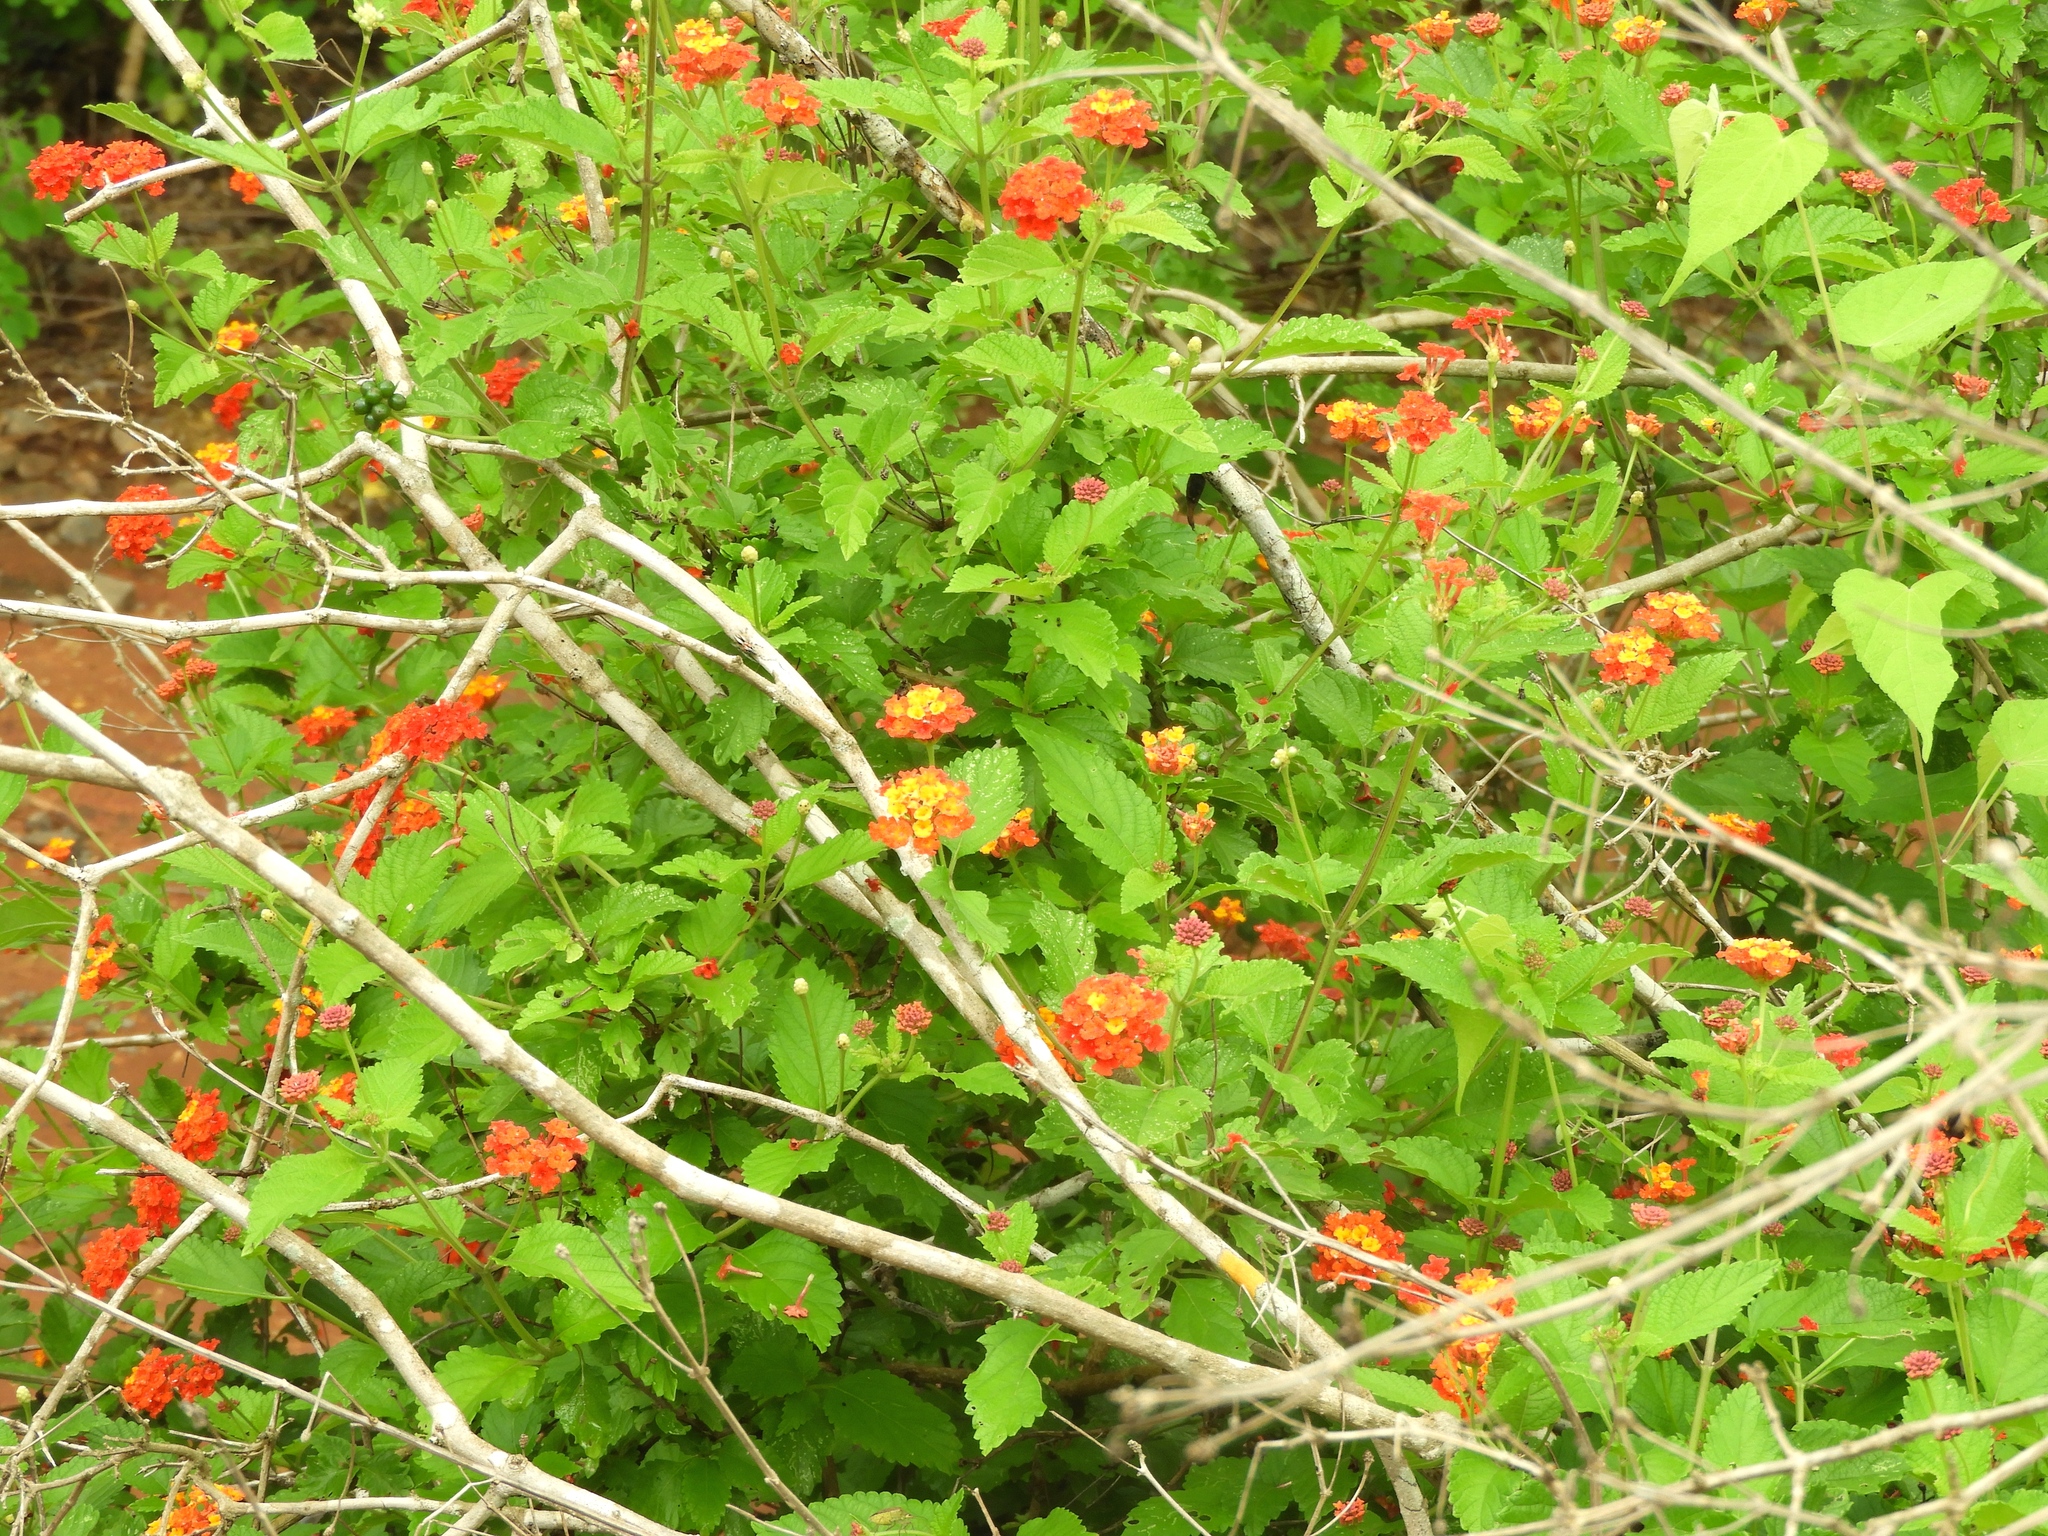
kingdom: Plantae
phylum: Tracheophyta
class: Magnoliopsida
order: Lamiales
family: Verbenaceae
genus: Lantana
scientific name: Lantana camara
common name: Lantana
